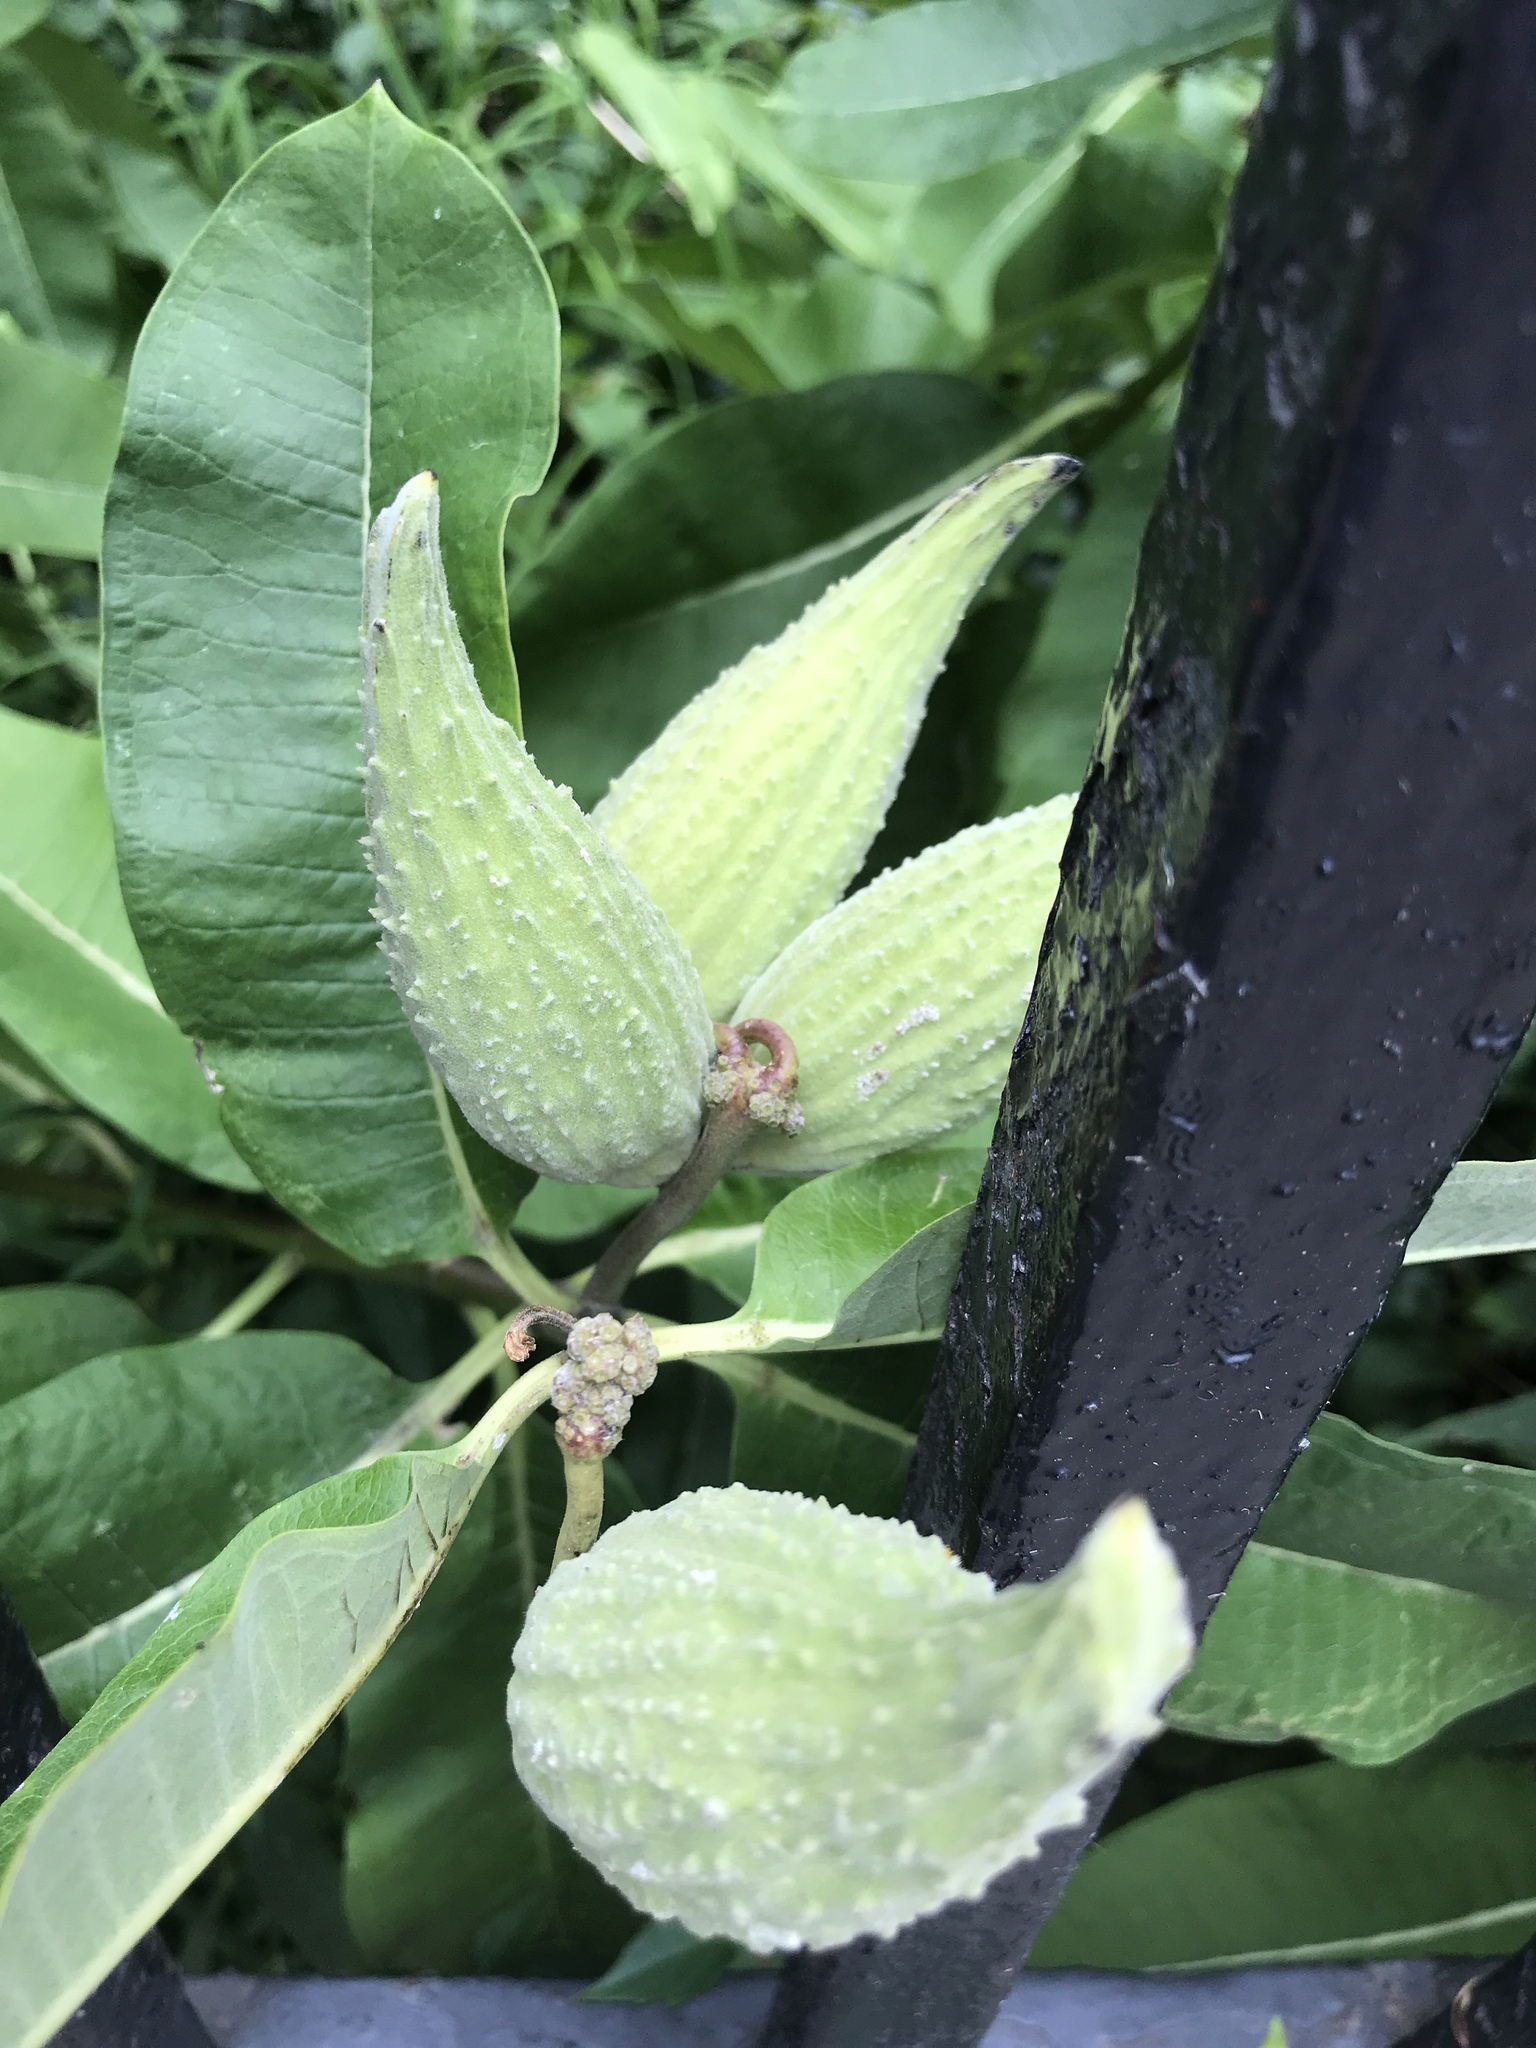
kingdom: Plantae
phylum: Tracheophyta
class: Magnoliopsida
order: Gentianales
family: Apocynaceae
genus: Asclepias
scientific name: Asclepias syriaca
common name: Common milkweed
